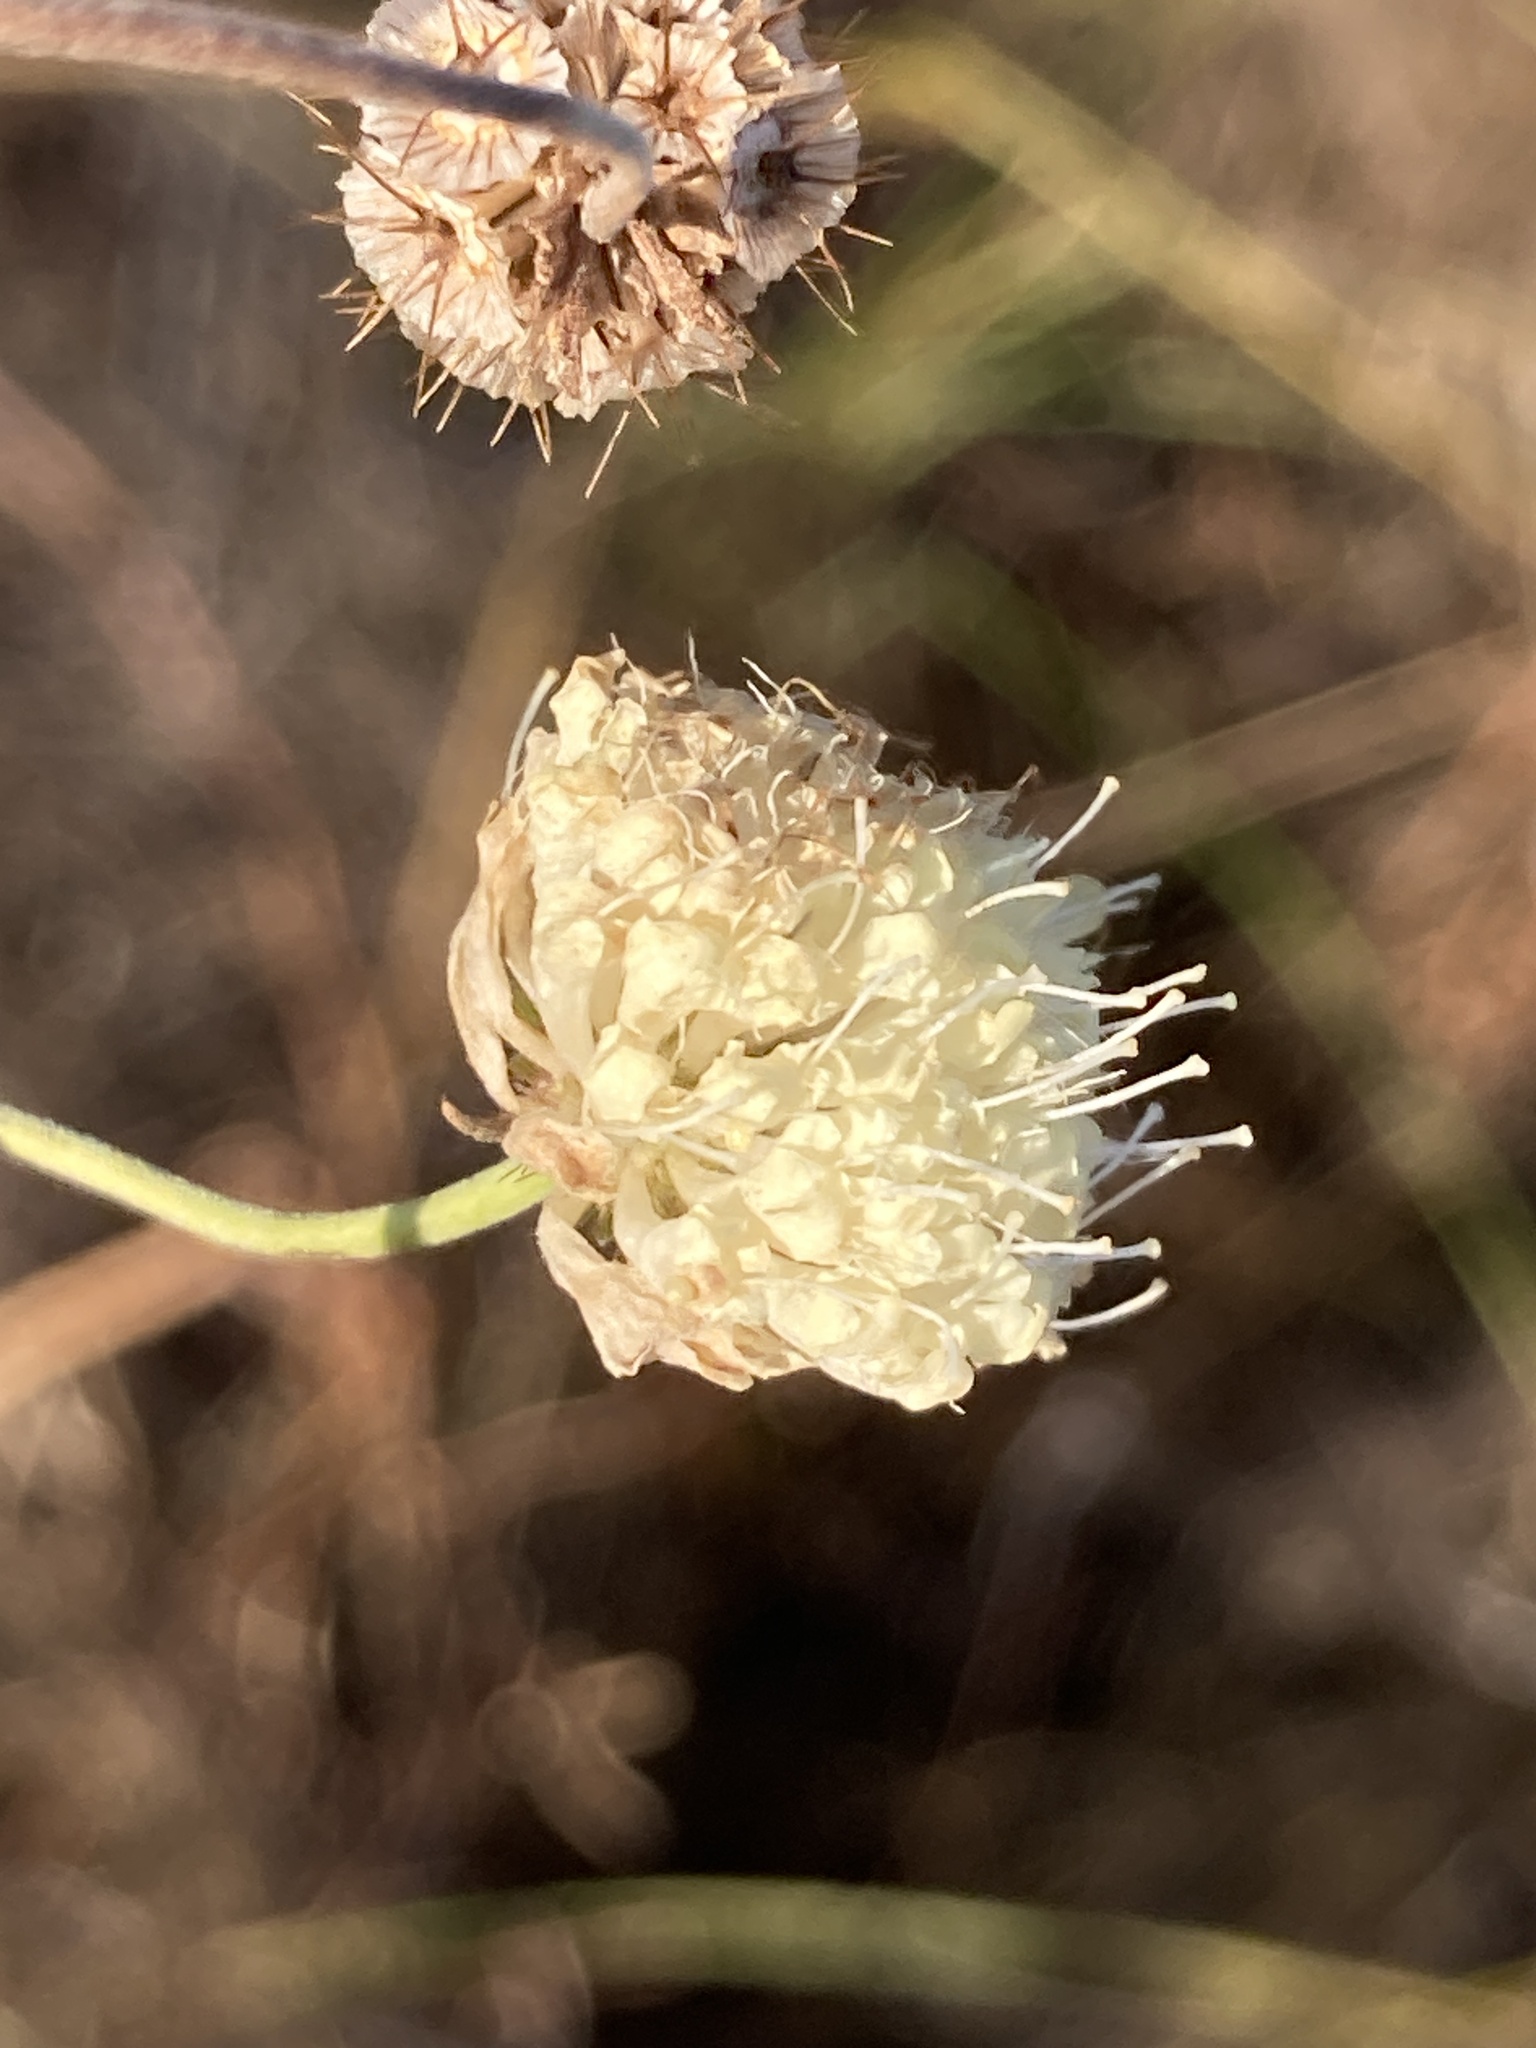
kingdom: Plantae
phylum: Tracheophyta
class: Magnoliopsida
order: Dipsacales
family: Caprifoliaceae
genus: Scabiosa
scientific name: Scabiosa ochroleuca
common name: Cream pincushions
